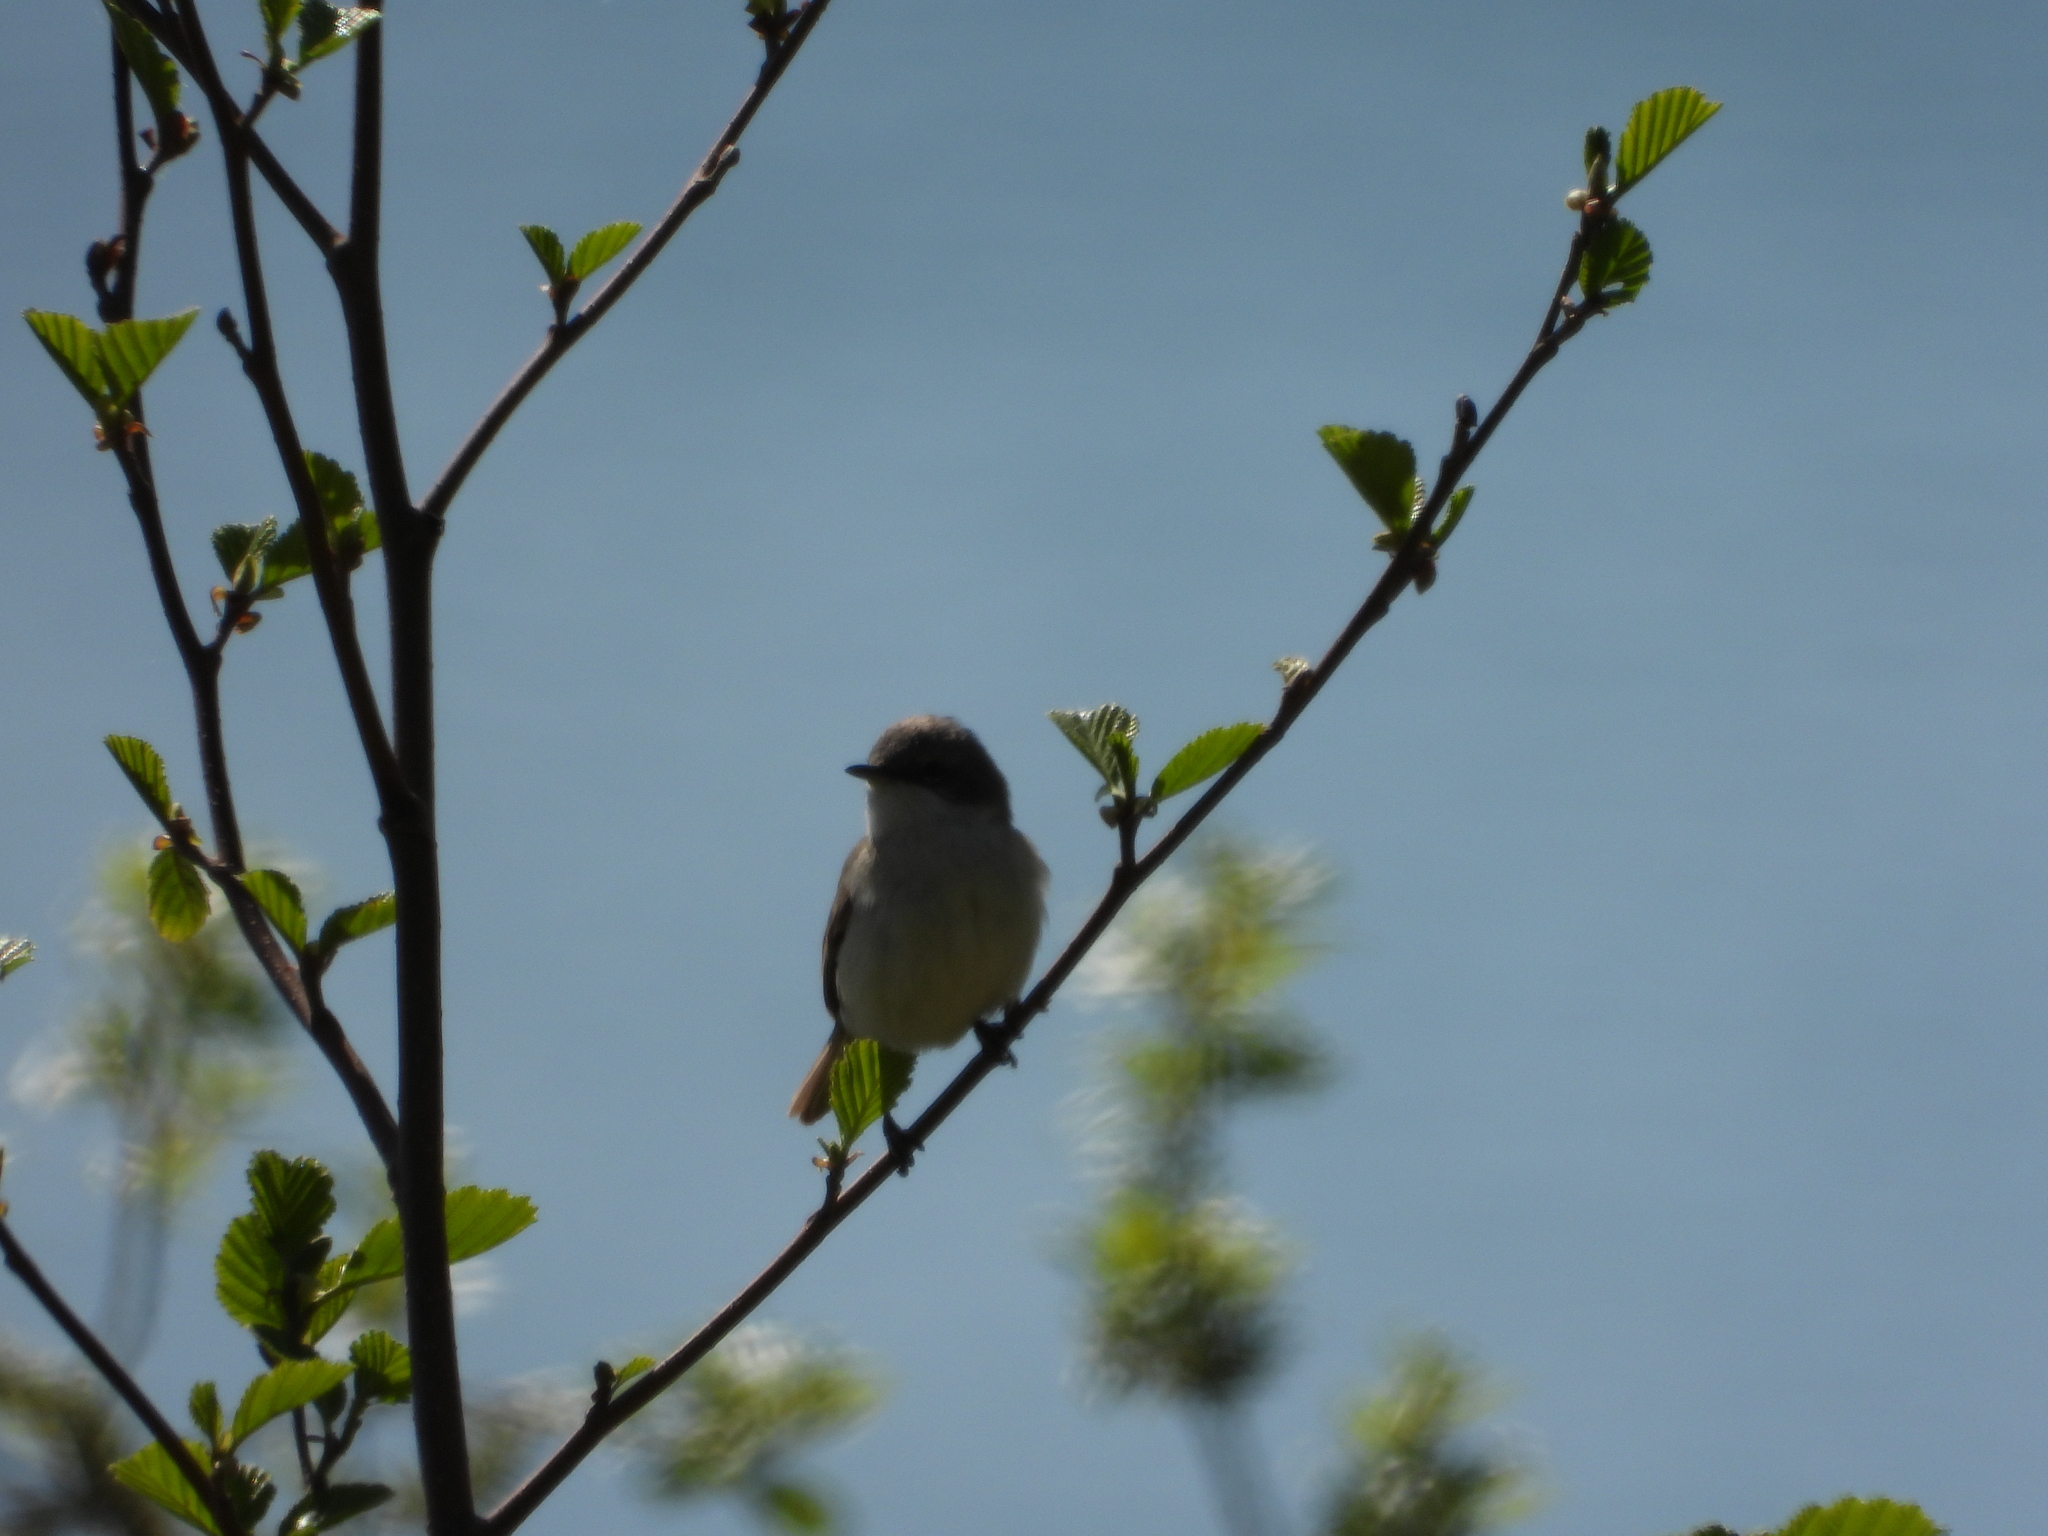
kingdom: Animalia
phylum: Chordata
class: Aves
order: Passeriformes
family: Sylviidae
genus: Sylvia
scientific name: Sylvia curruca
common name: Lesser whitethroat
